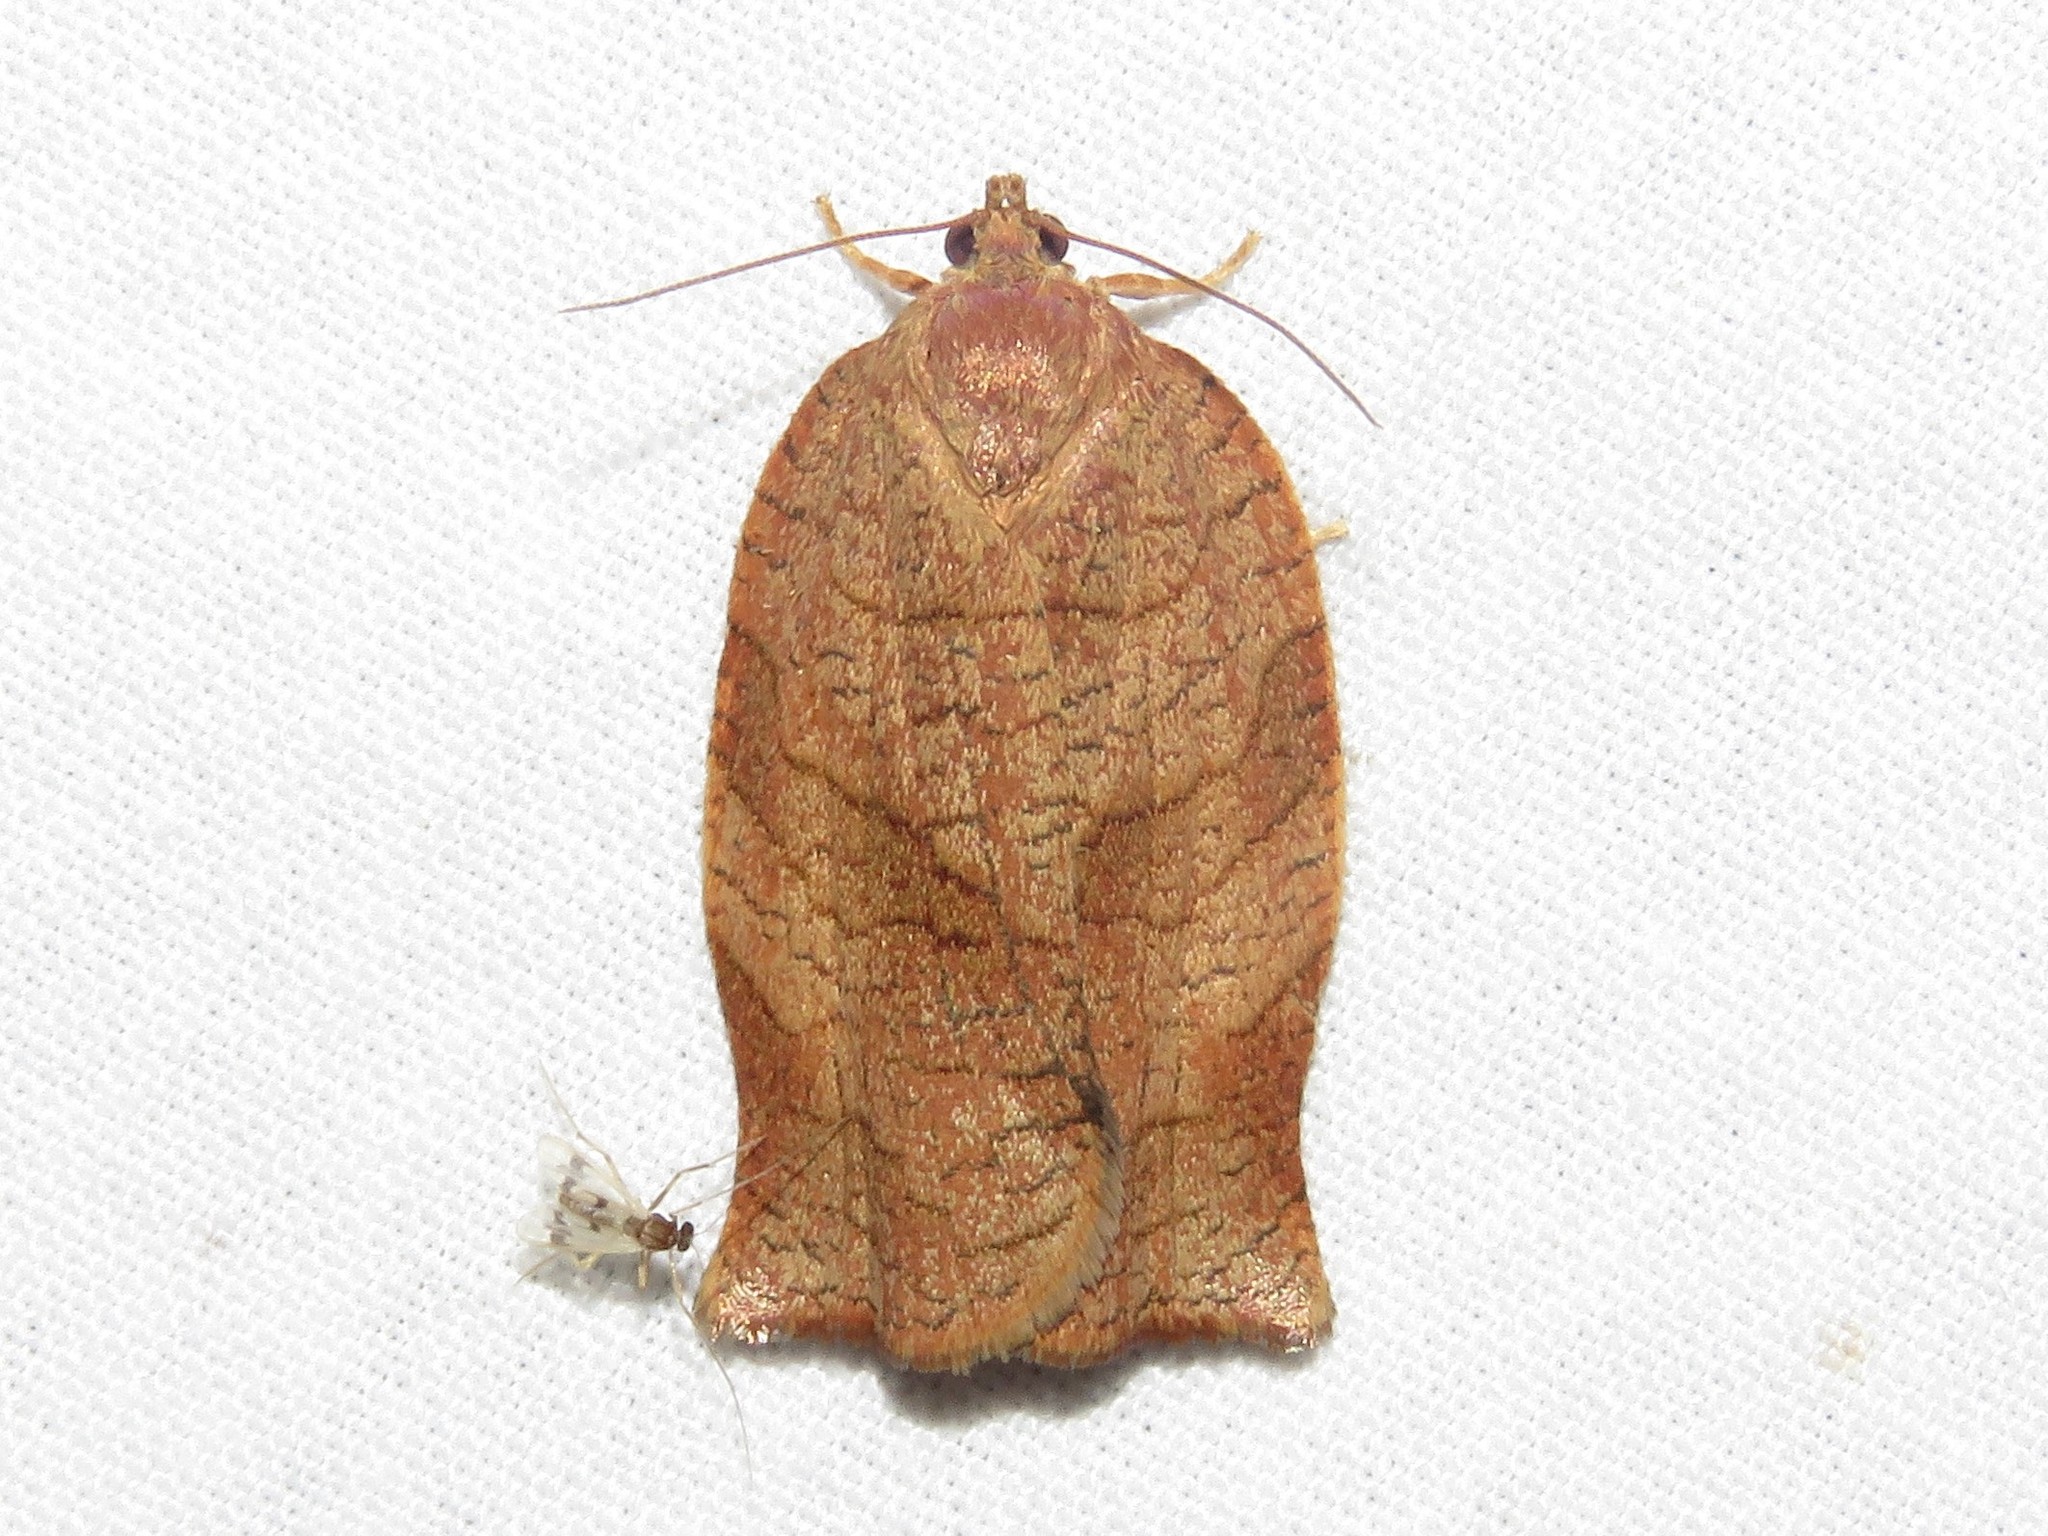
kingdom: Animalia
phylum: Arthropoda
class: Insecta
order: Lepidoptera
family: Tortricidae
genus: Choristoneura
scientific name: Choristoneura rosaceana
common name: Oblique-banded leafroller moth
